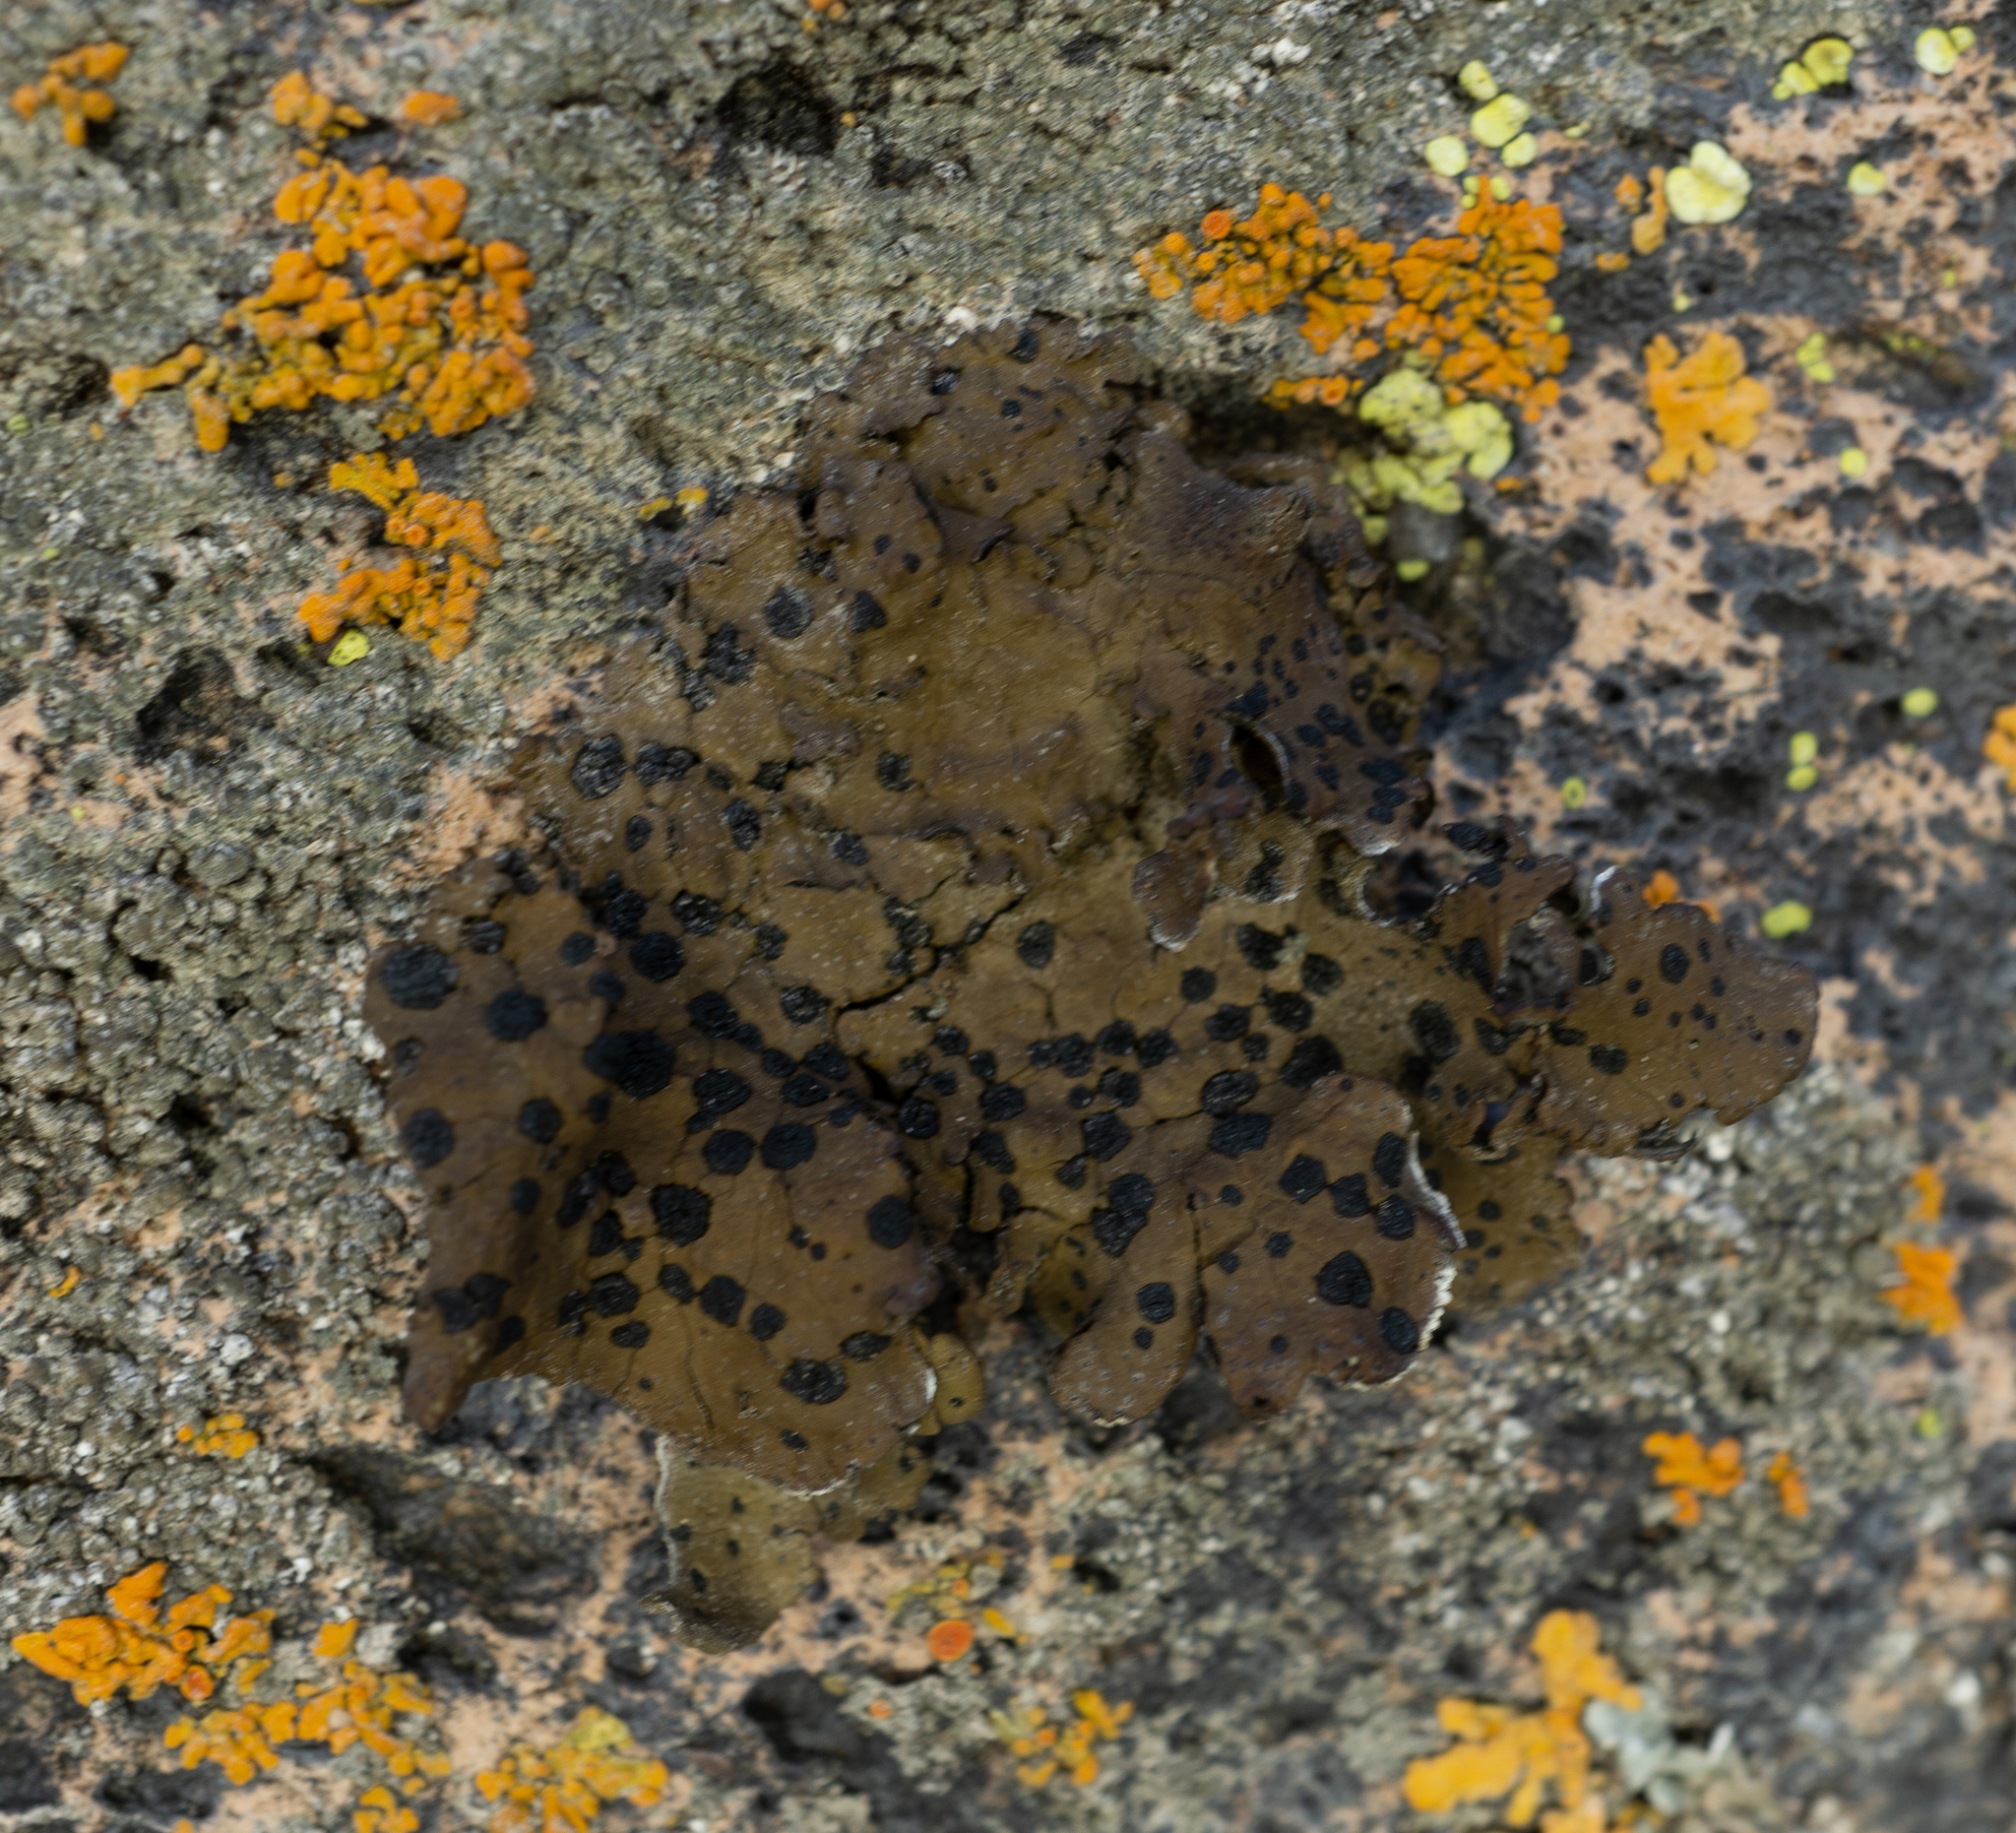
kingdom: Fungi
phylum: Ascomycota
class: Lecanoromycetes
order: Umbilicariales
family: Umbilicariaceae
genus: Umbilicaria
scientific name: Umbilicaria phaea
